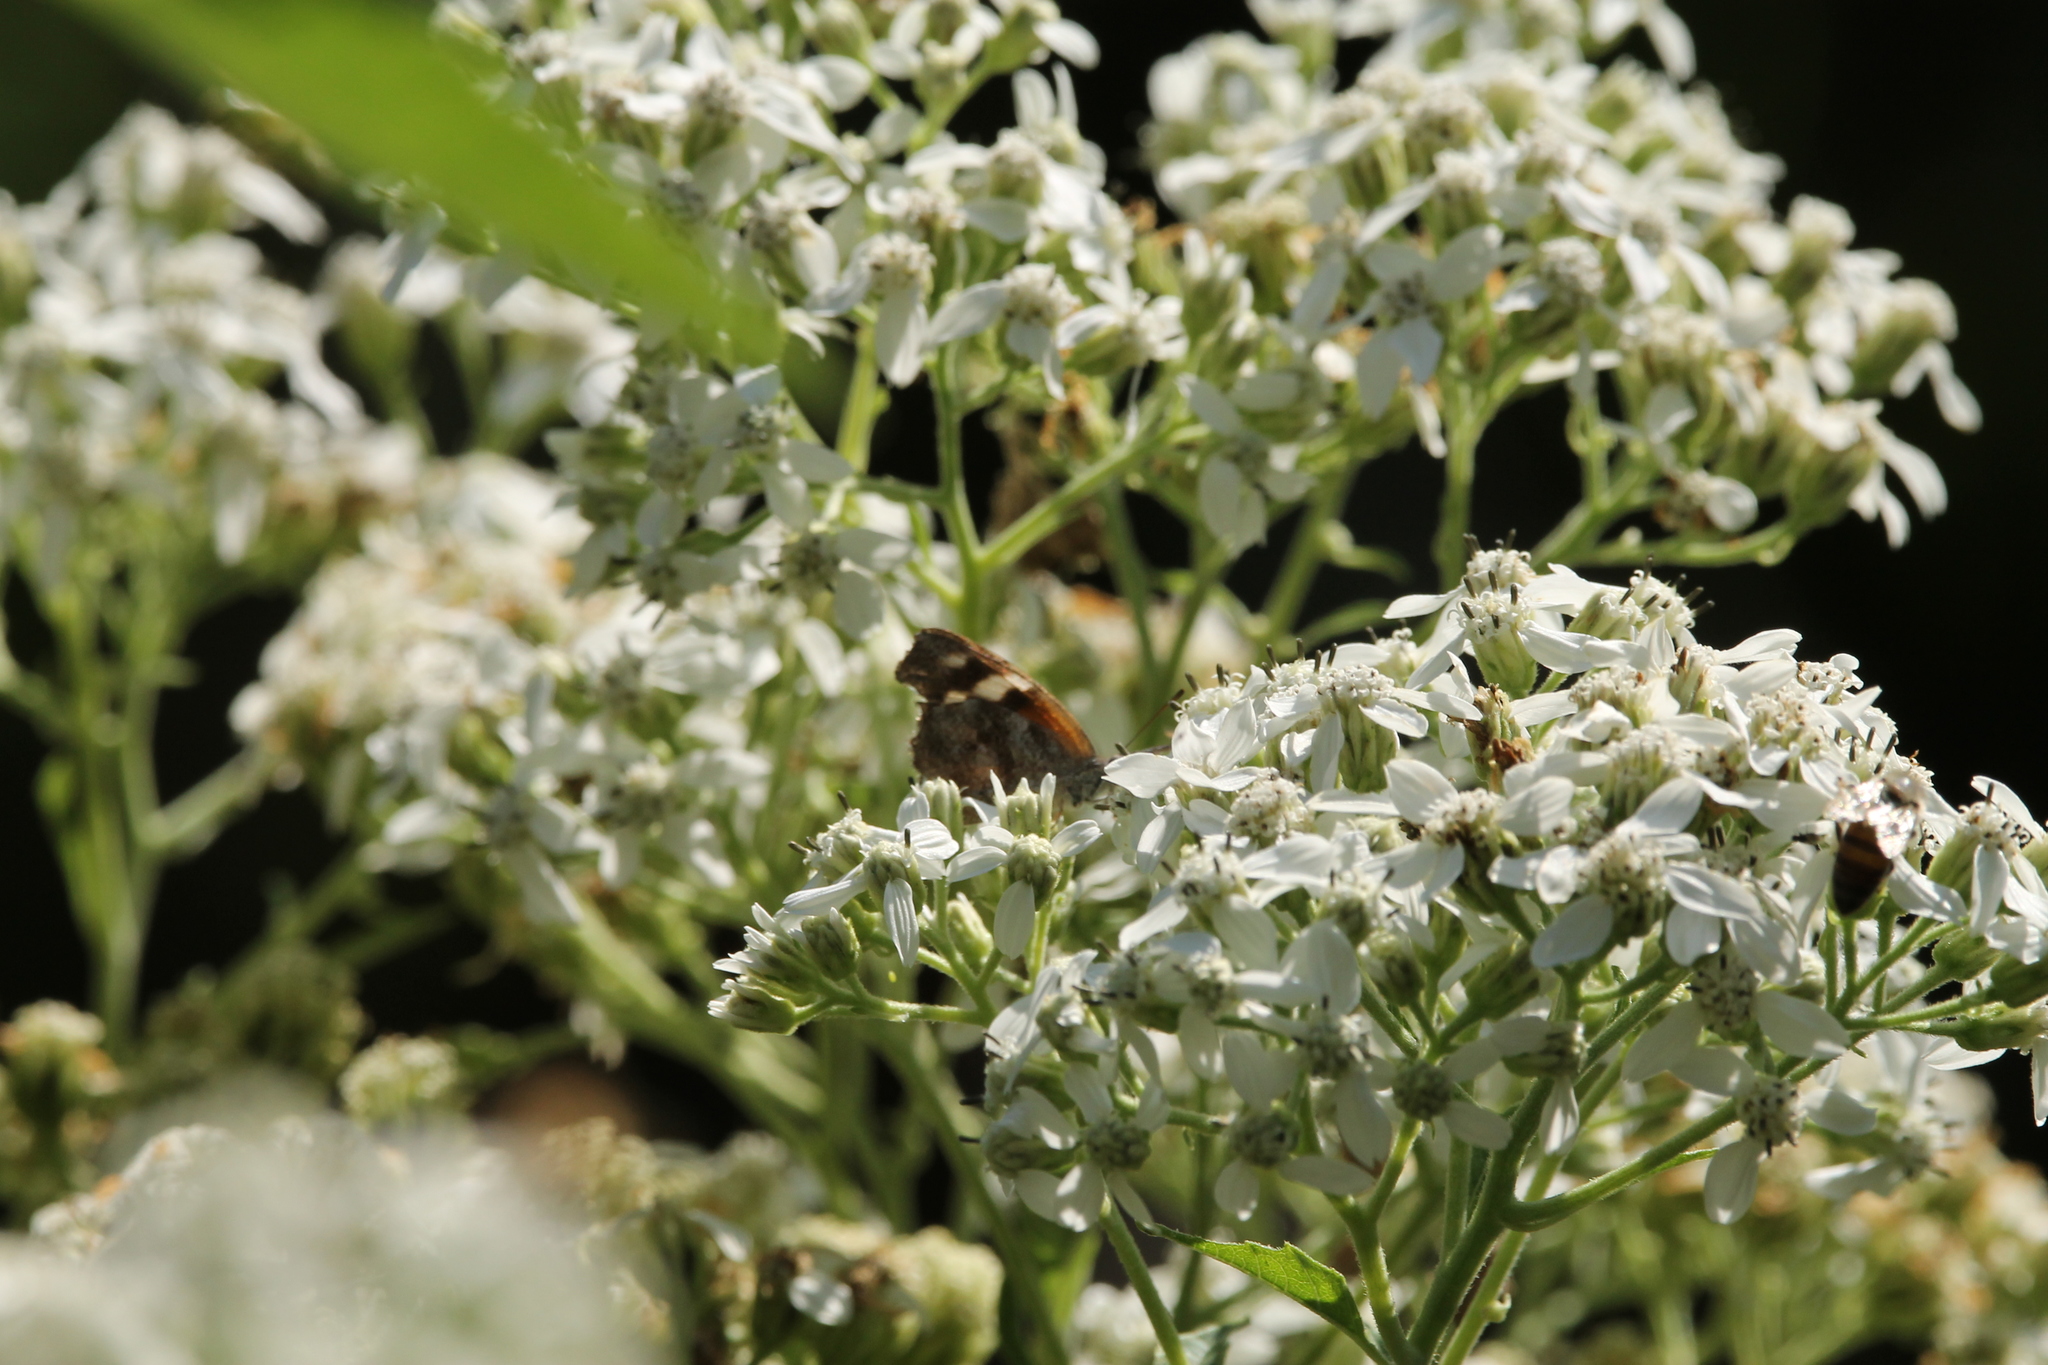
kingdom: Plantae
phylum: Tracheophyta
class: Magnoliopsida
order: Asterales
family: Asteraceae
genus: Verbesina
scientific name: Verbesina virginica
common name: Frostweed
